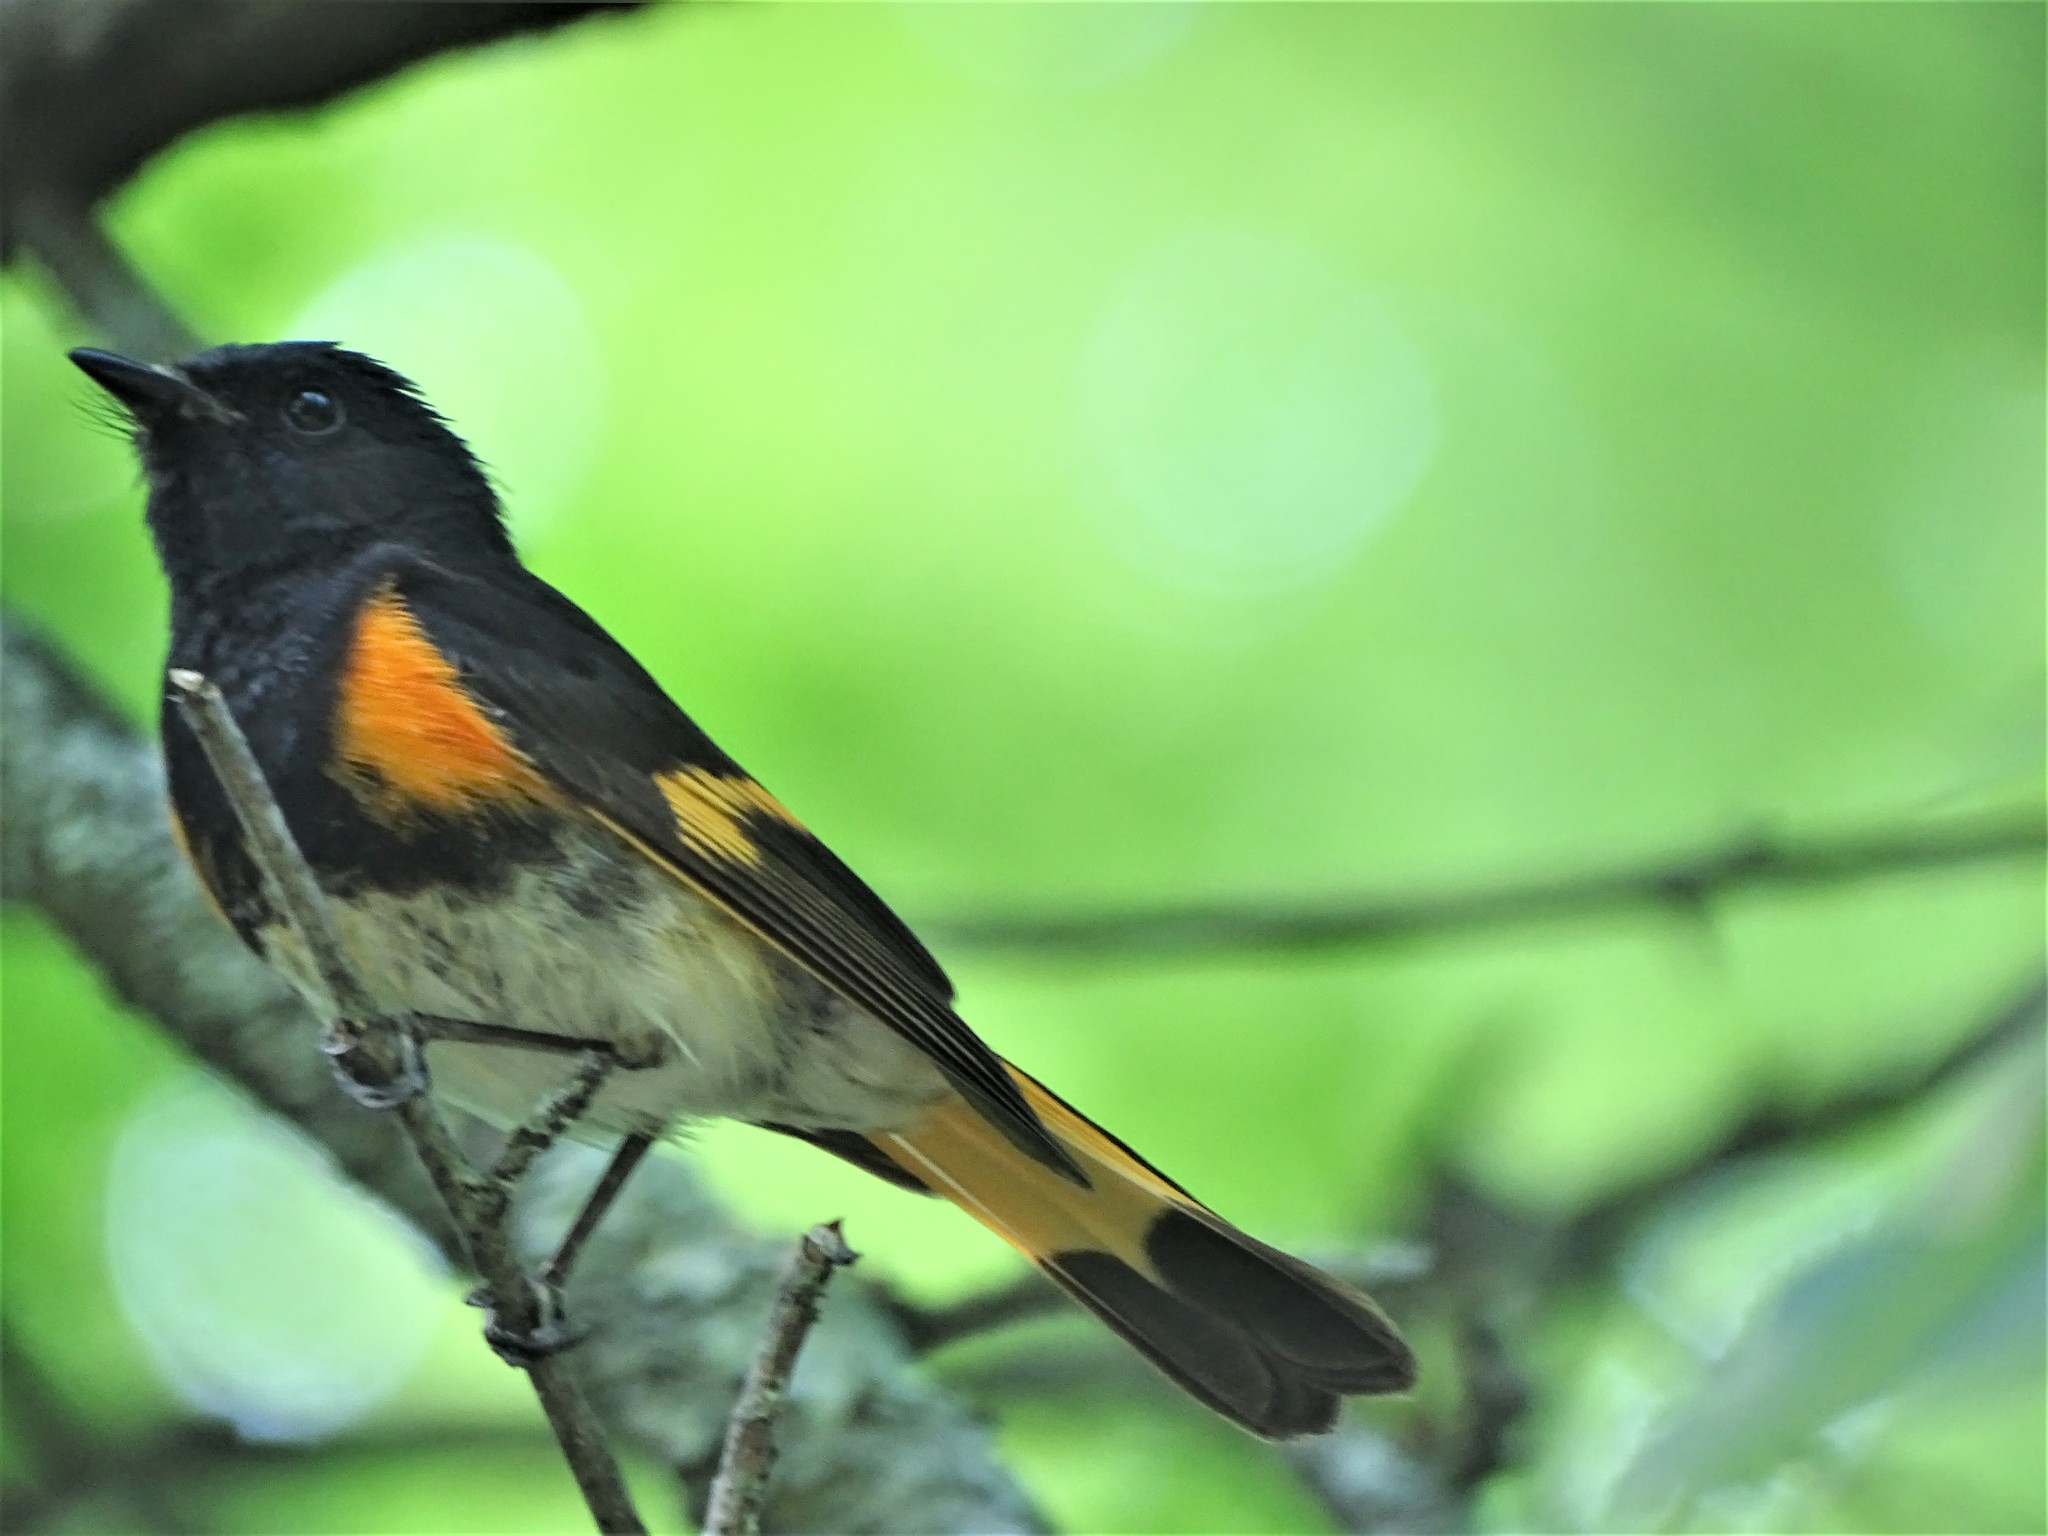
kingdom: Animalia
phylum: Chordata
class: Aves
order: Passeriformes
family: Parulidae
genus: Setophaga
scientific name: Setophaga ruticilla
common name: American redstart
